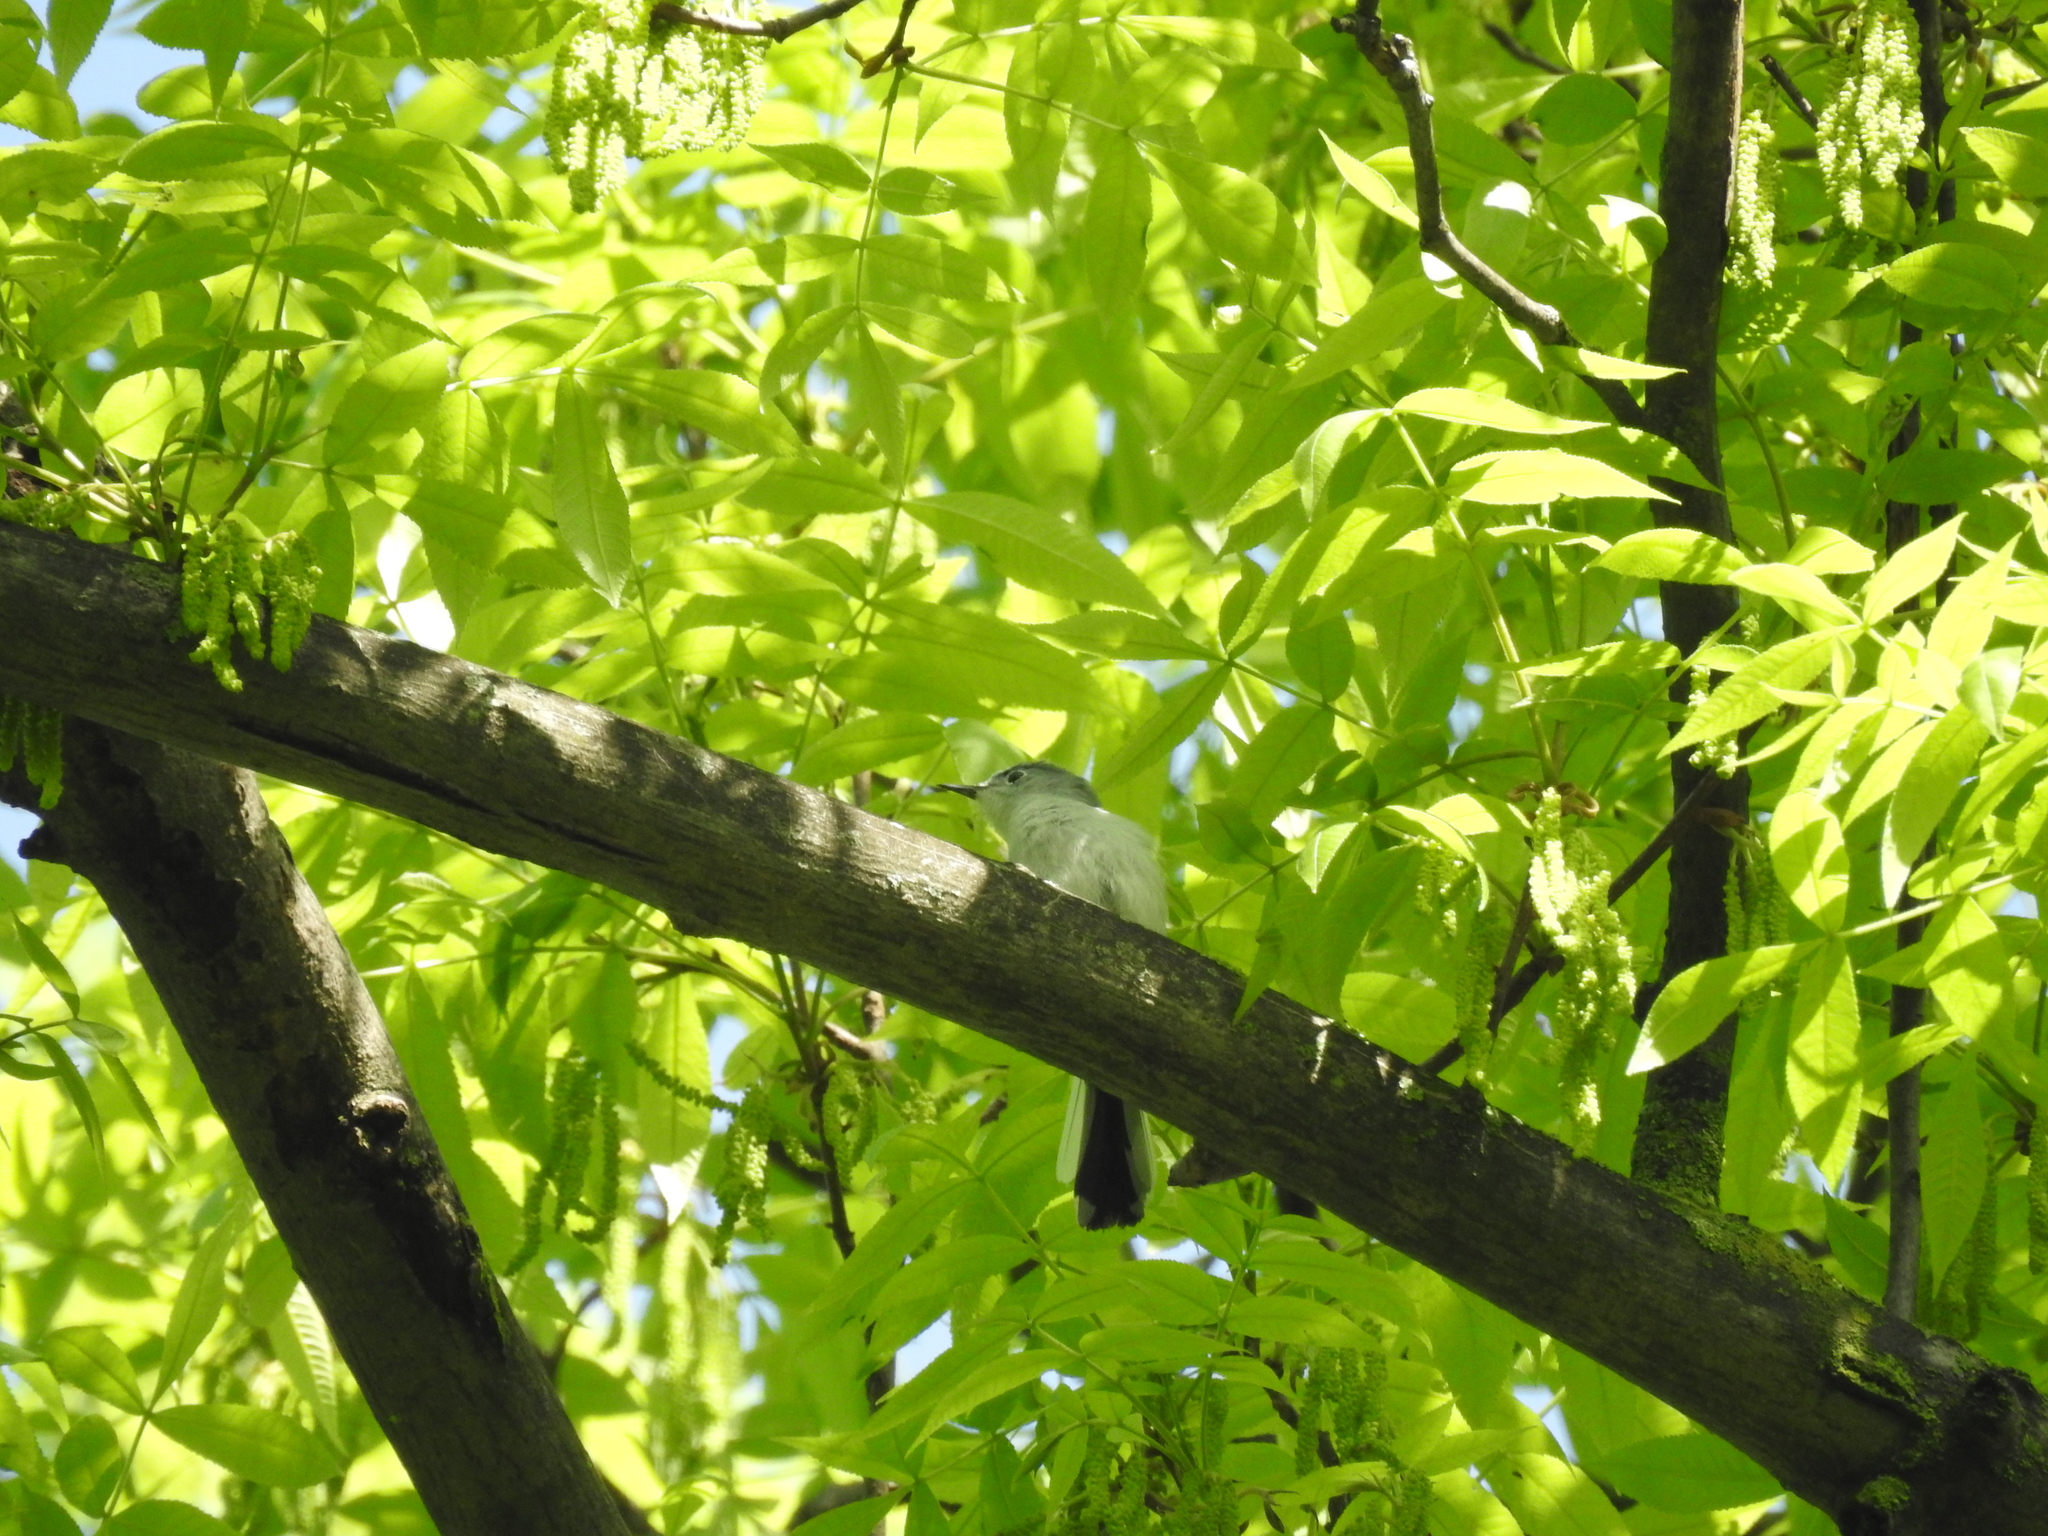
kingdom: Animalia
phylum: Chordata
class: Aves
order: Passeriformes
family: Polioptilidae
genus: Polioptila
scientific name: Polioptila caerulea
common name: Blue-gray gnatcatcher
